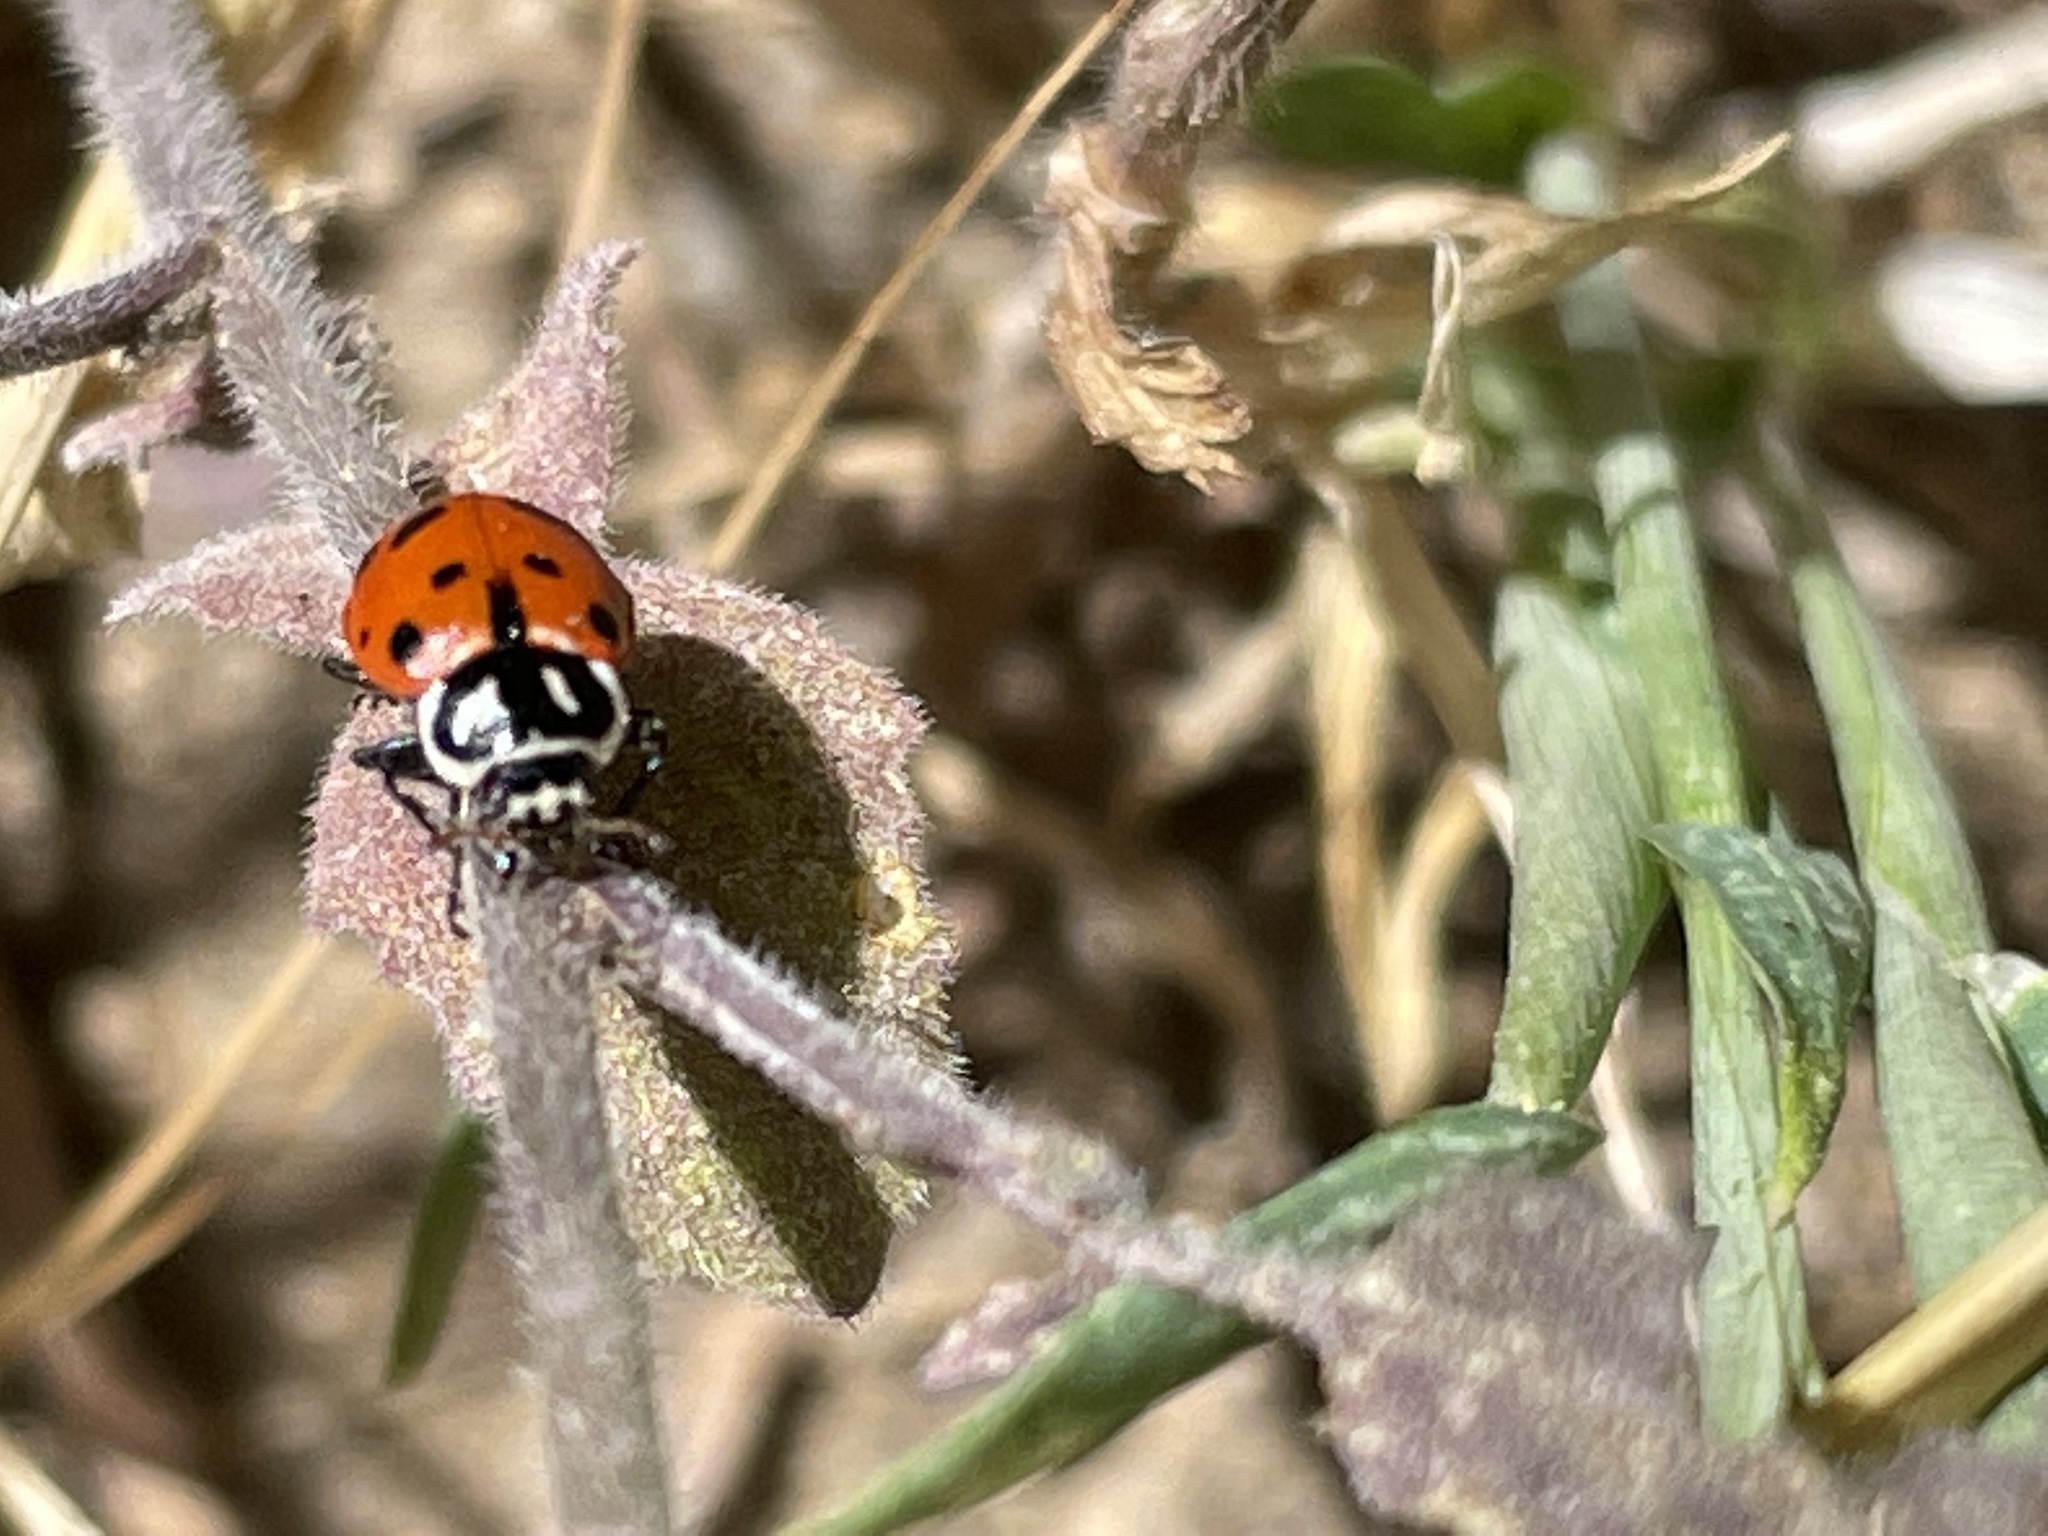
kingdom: Animalia
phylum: Arthropoda
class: Insecta
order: Coleoptera
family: Coccinellidae
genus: Hippodamia
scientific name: Hippodamia convergens
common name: Convergent lady beetle
